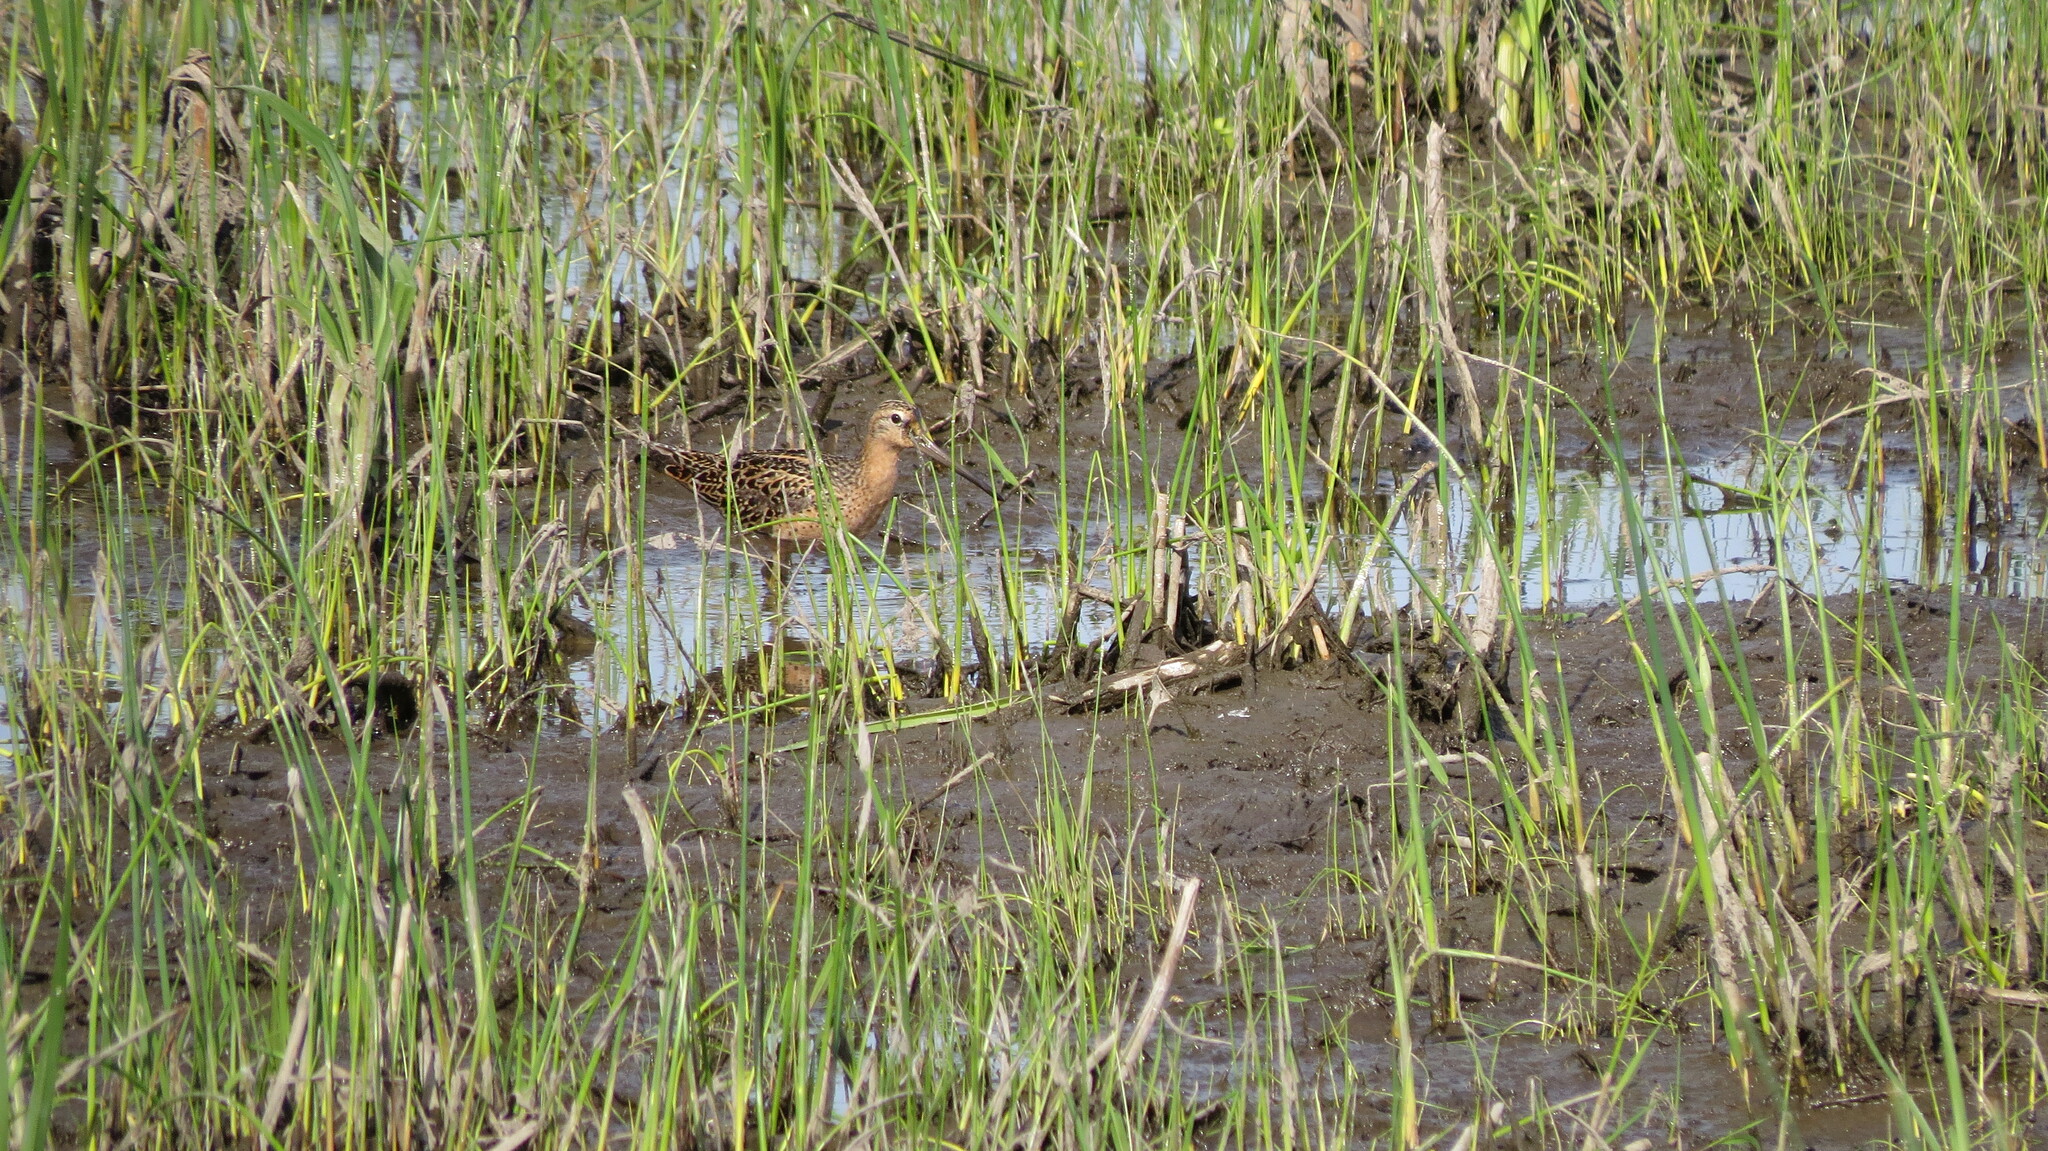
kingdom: Animalia
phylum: Chordata
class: Aves
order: Charadriiformes
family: Scolopacidae
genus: Limnodromus
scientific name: Limnodromus griseus
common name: Short-billed dowitcher
